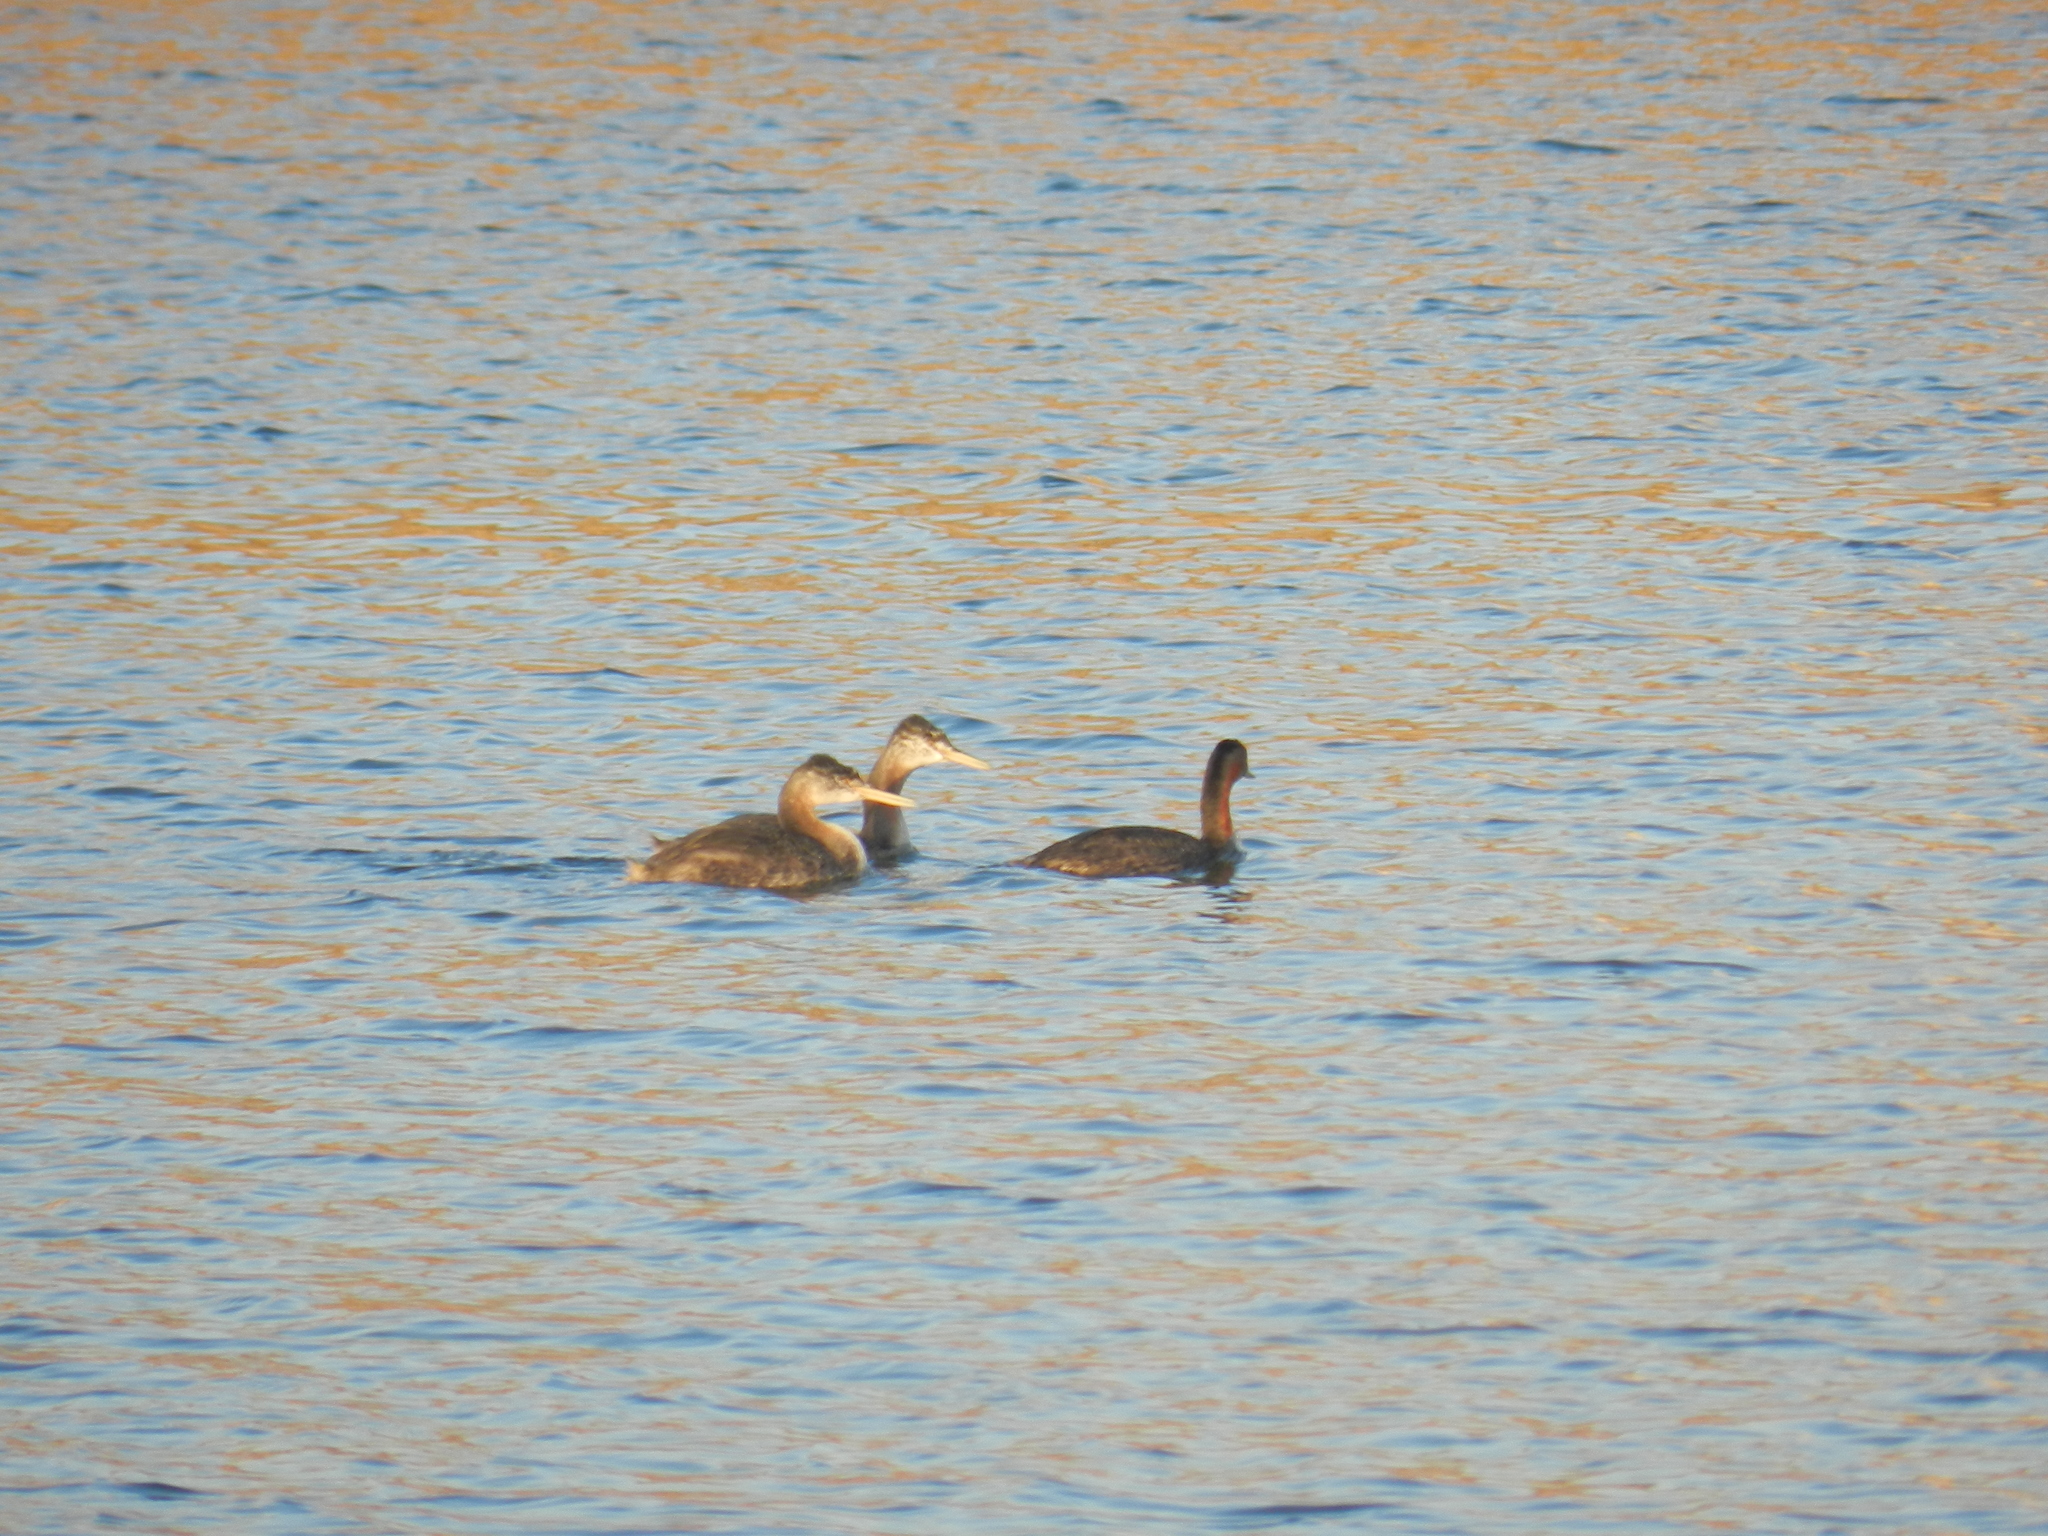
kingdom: Animalia
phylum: Chordata
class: Aves
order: Podicipediformes
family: Podicipedidae
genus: Podiceps
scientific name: Podiceps major
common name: Great grebe
